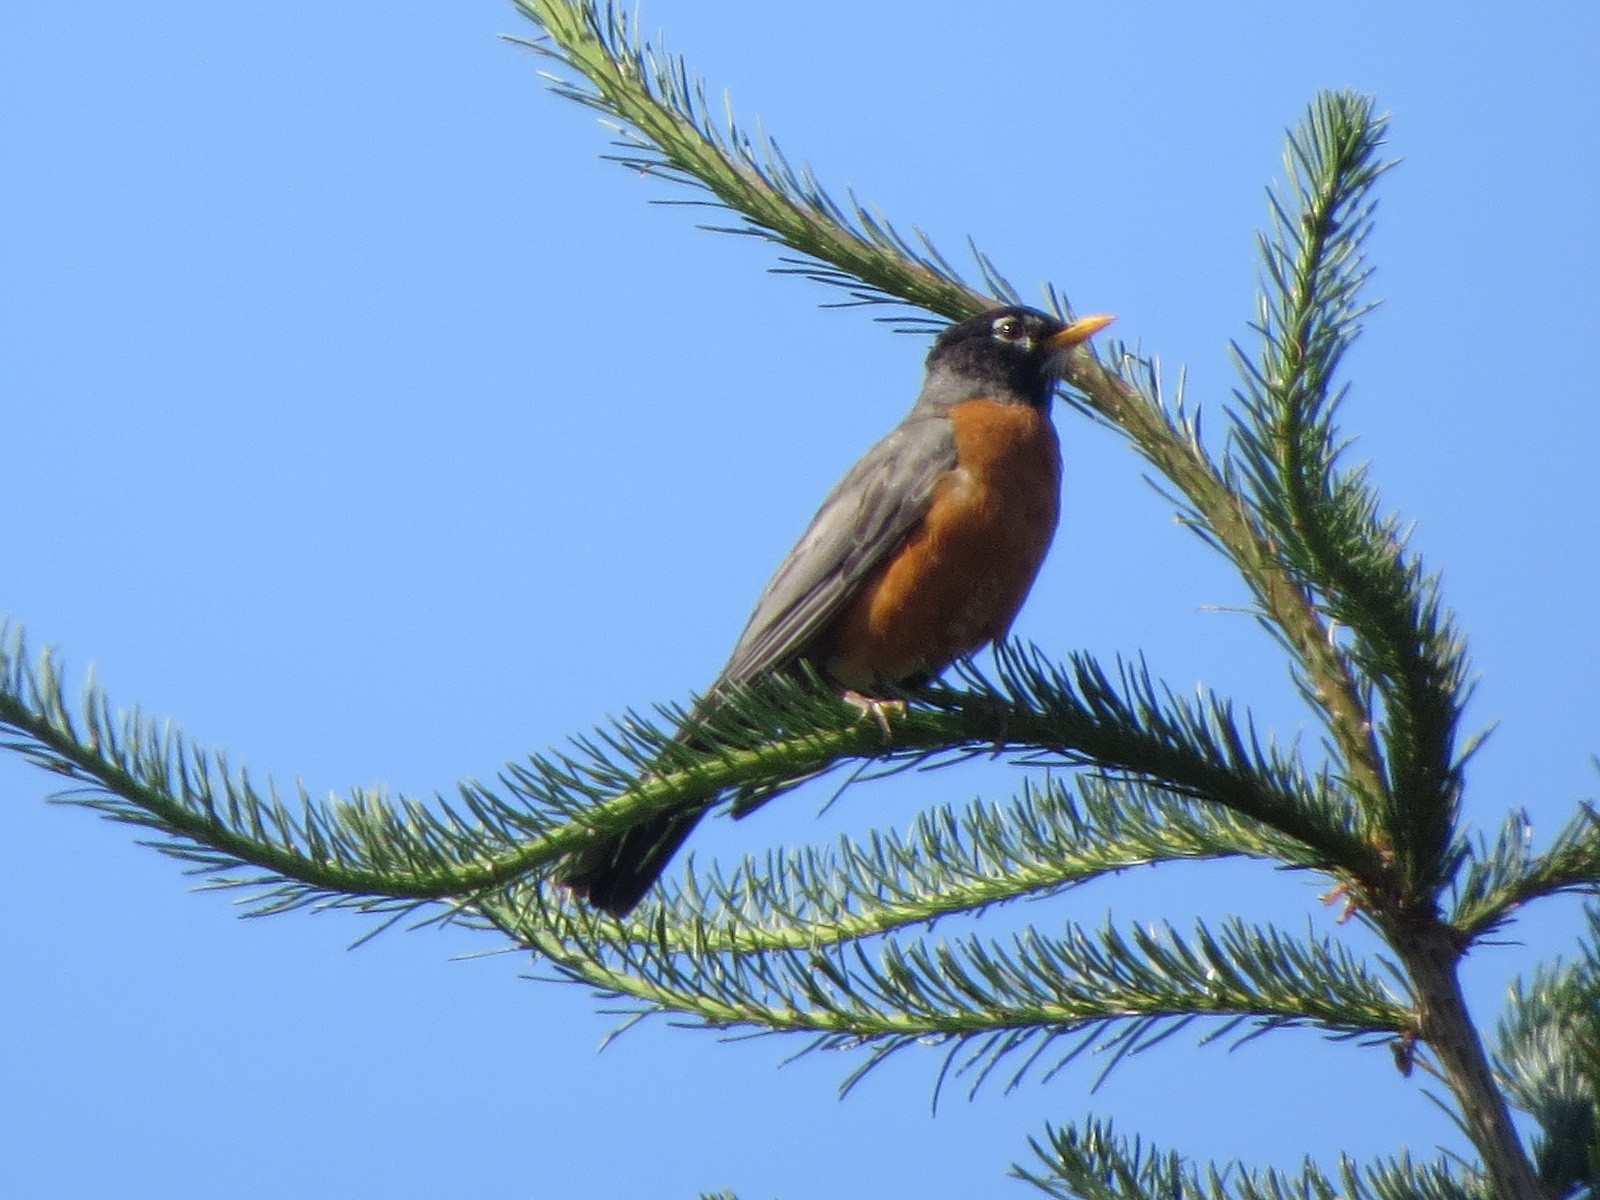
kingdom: Animalia
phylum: Chordata
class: Aves
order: Passeriformes
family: Turdidae
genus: Turdus
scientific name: Turdus migratorius
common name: American robin
